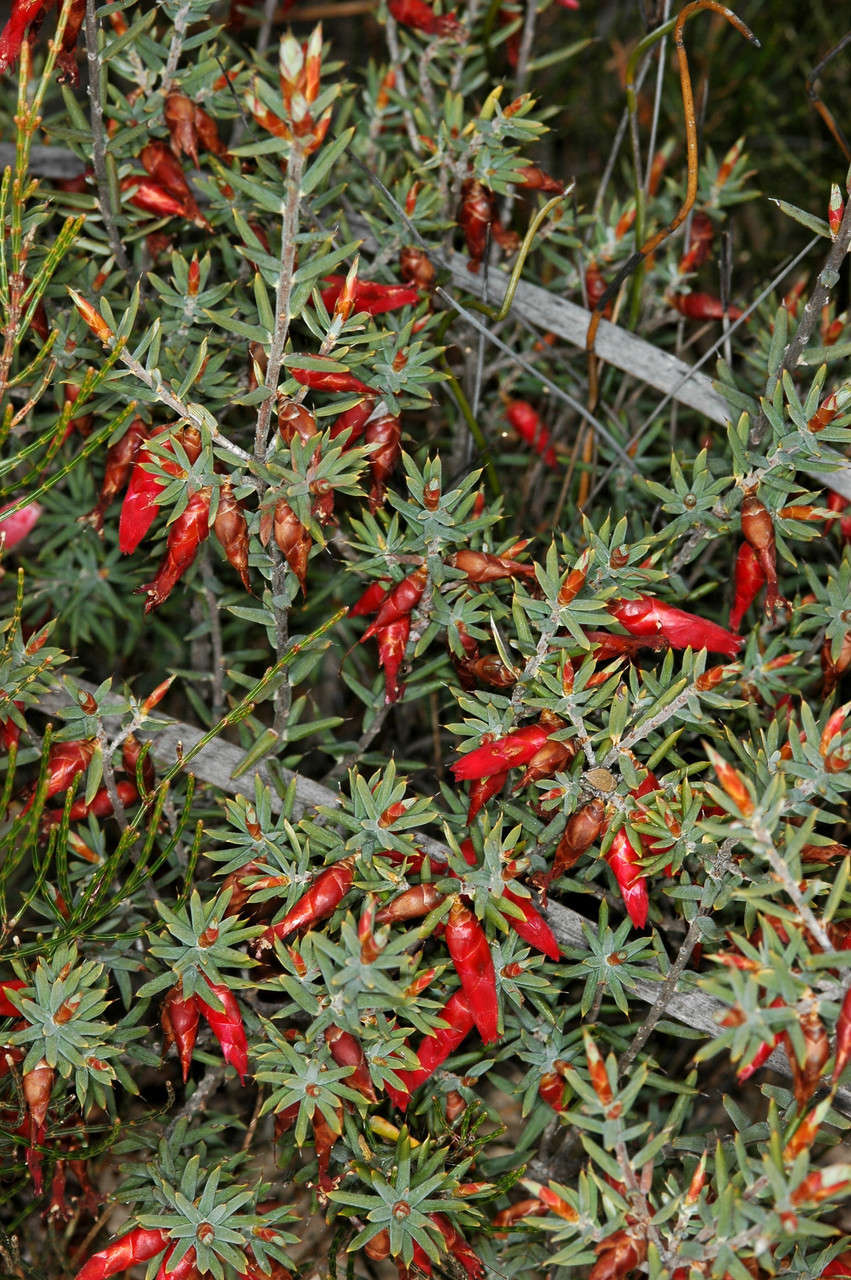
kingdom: Plantae
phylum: Tracheophyta
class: Magnoliopsida
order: Ericales
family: Ericaceae
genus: Stenanthera
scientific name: Stenanthera conostephioides
